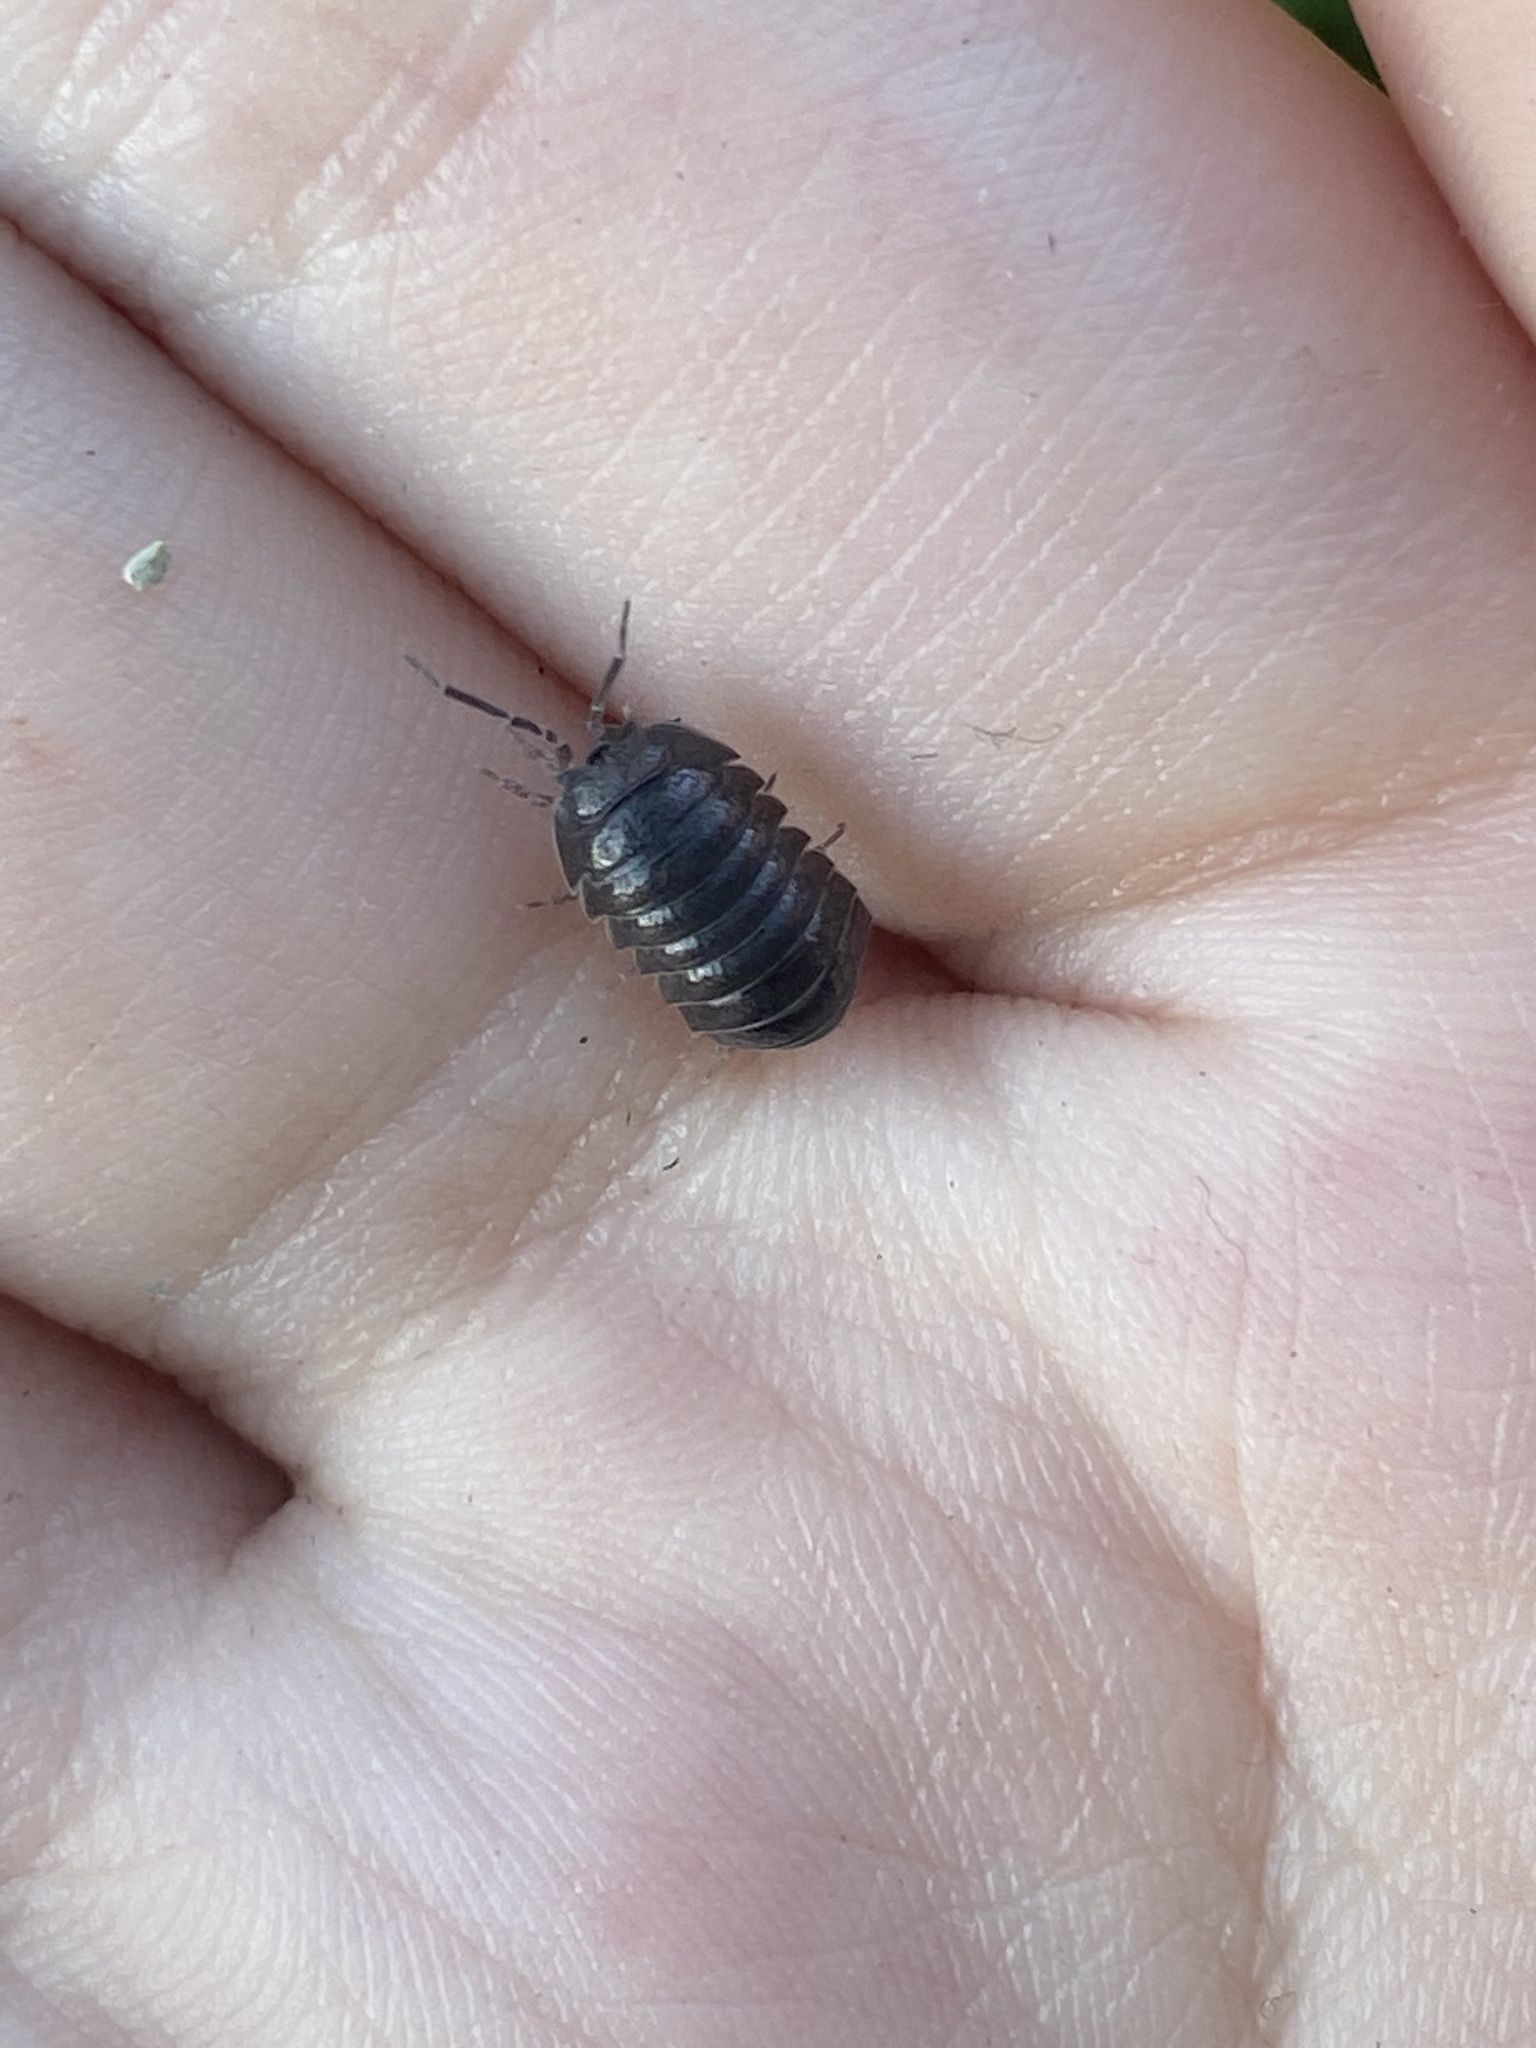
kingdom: Animalia
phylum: Arthropoda
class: Malacostraca
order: Isopoda
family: Armadillidiidae
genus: Armadillidium
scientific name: Armadillidium nasatum
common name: Isopod
